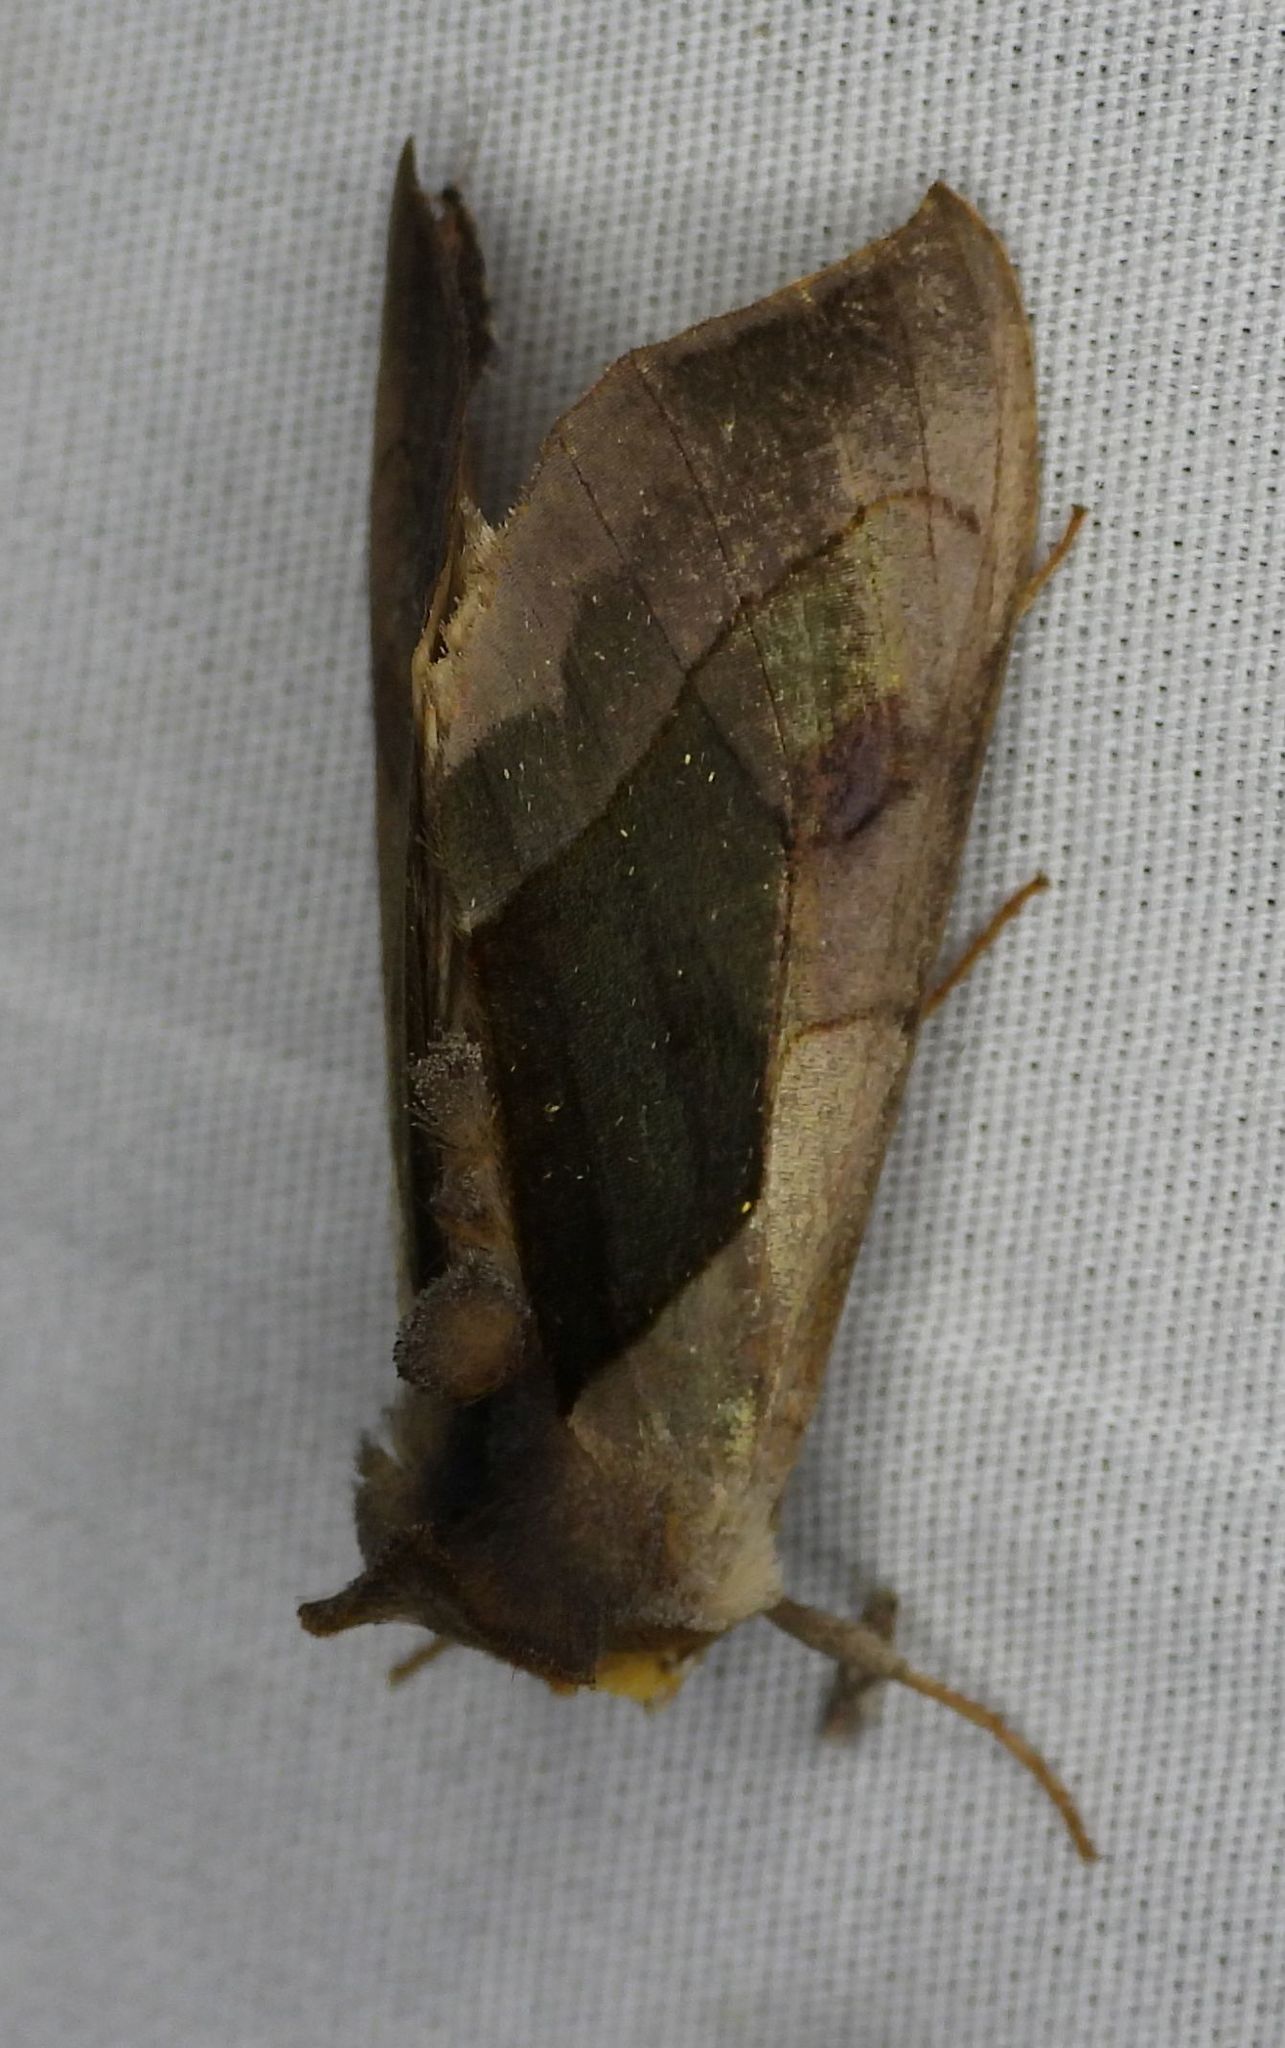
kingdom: Animalia
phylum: Arthropoda
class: Insecta
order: Lepidoptera
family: Noctuidae
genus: Diachrysia
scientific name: Diachrysia balluca
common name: Green-patched looper moth
